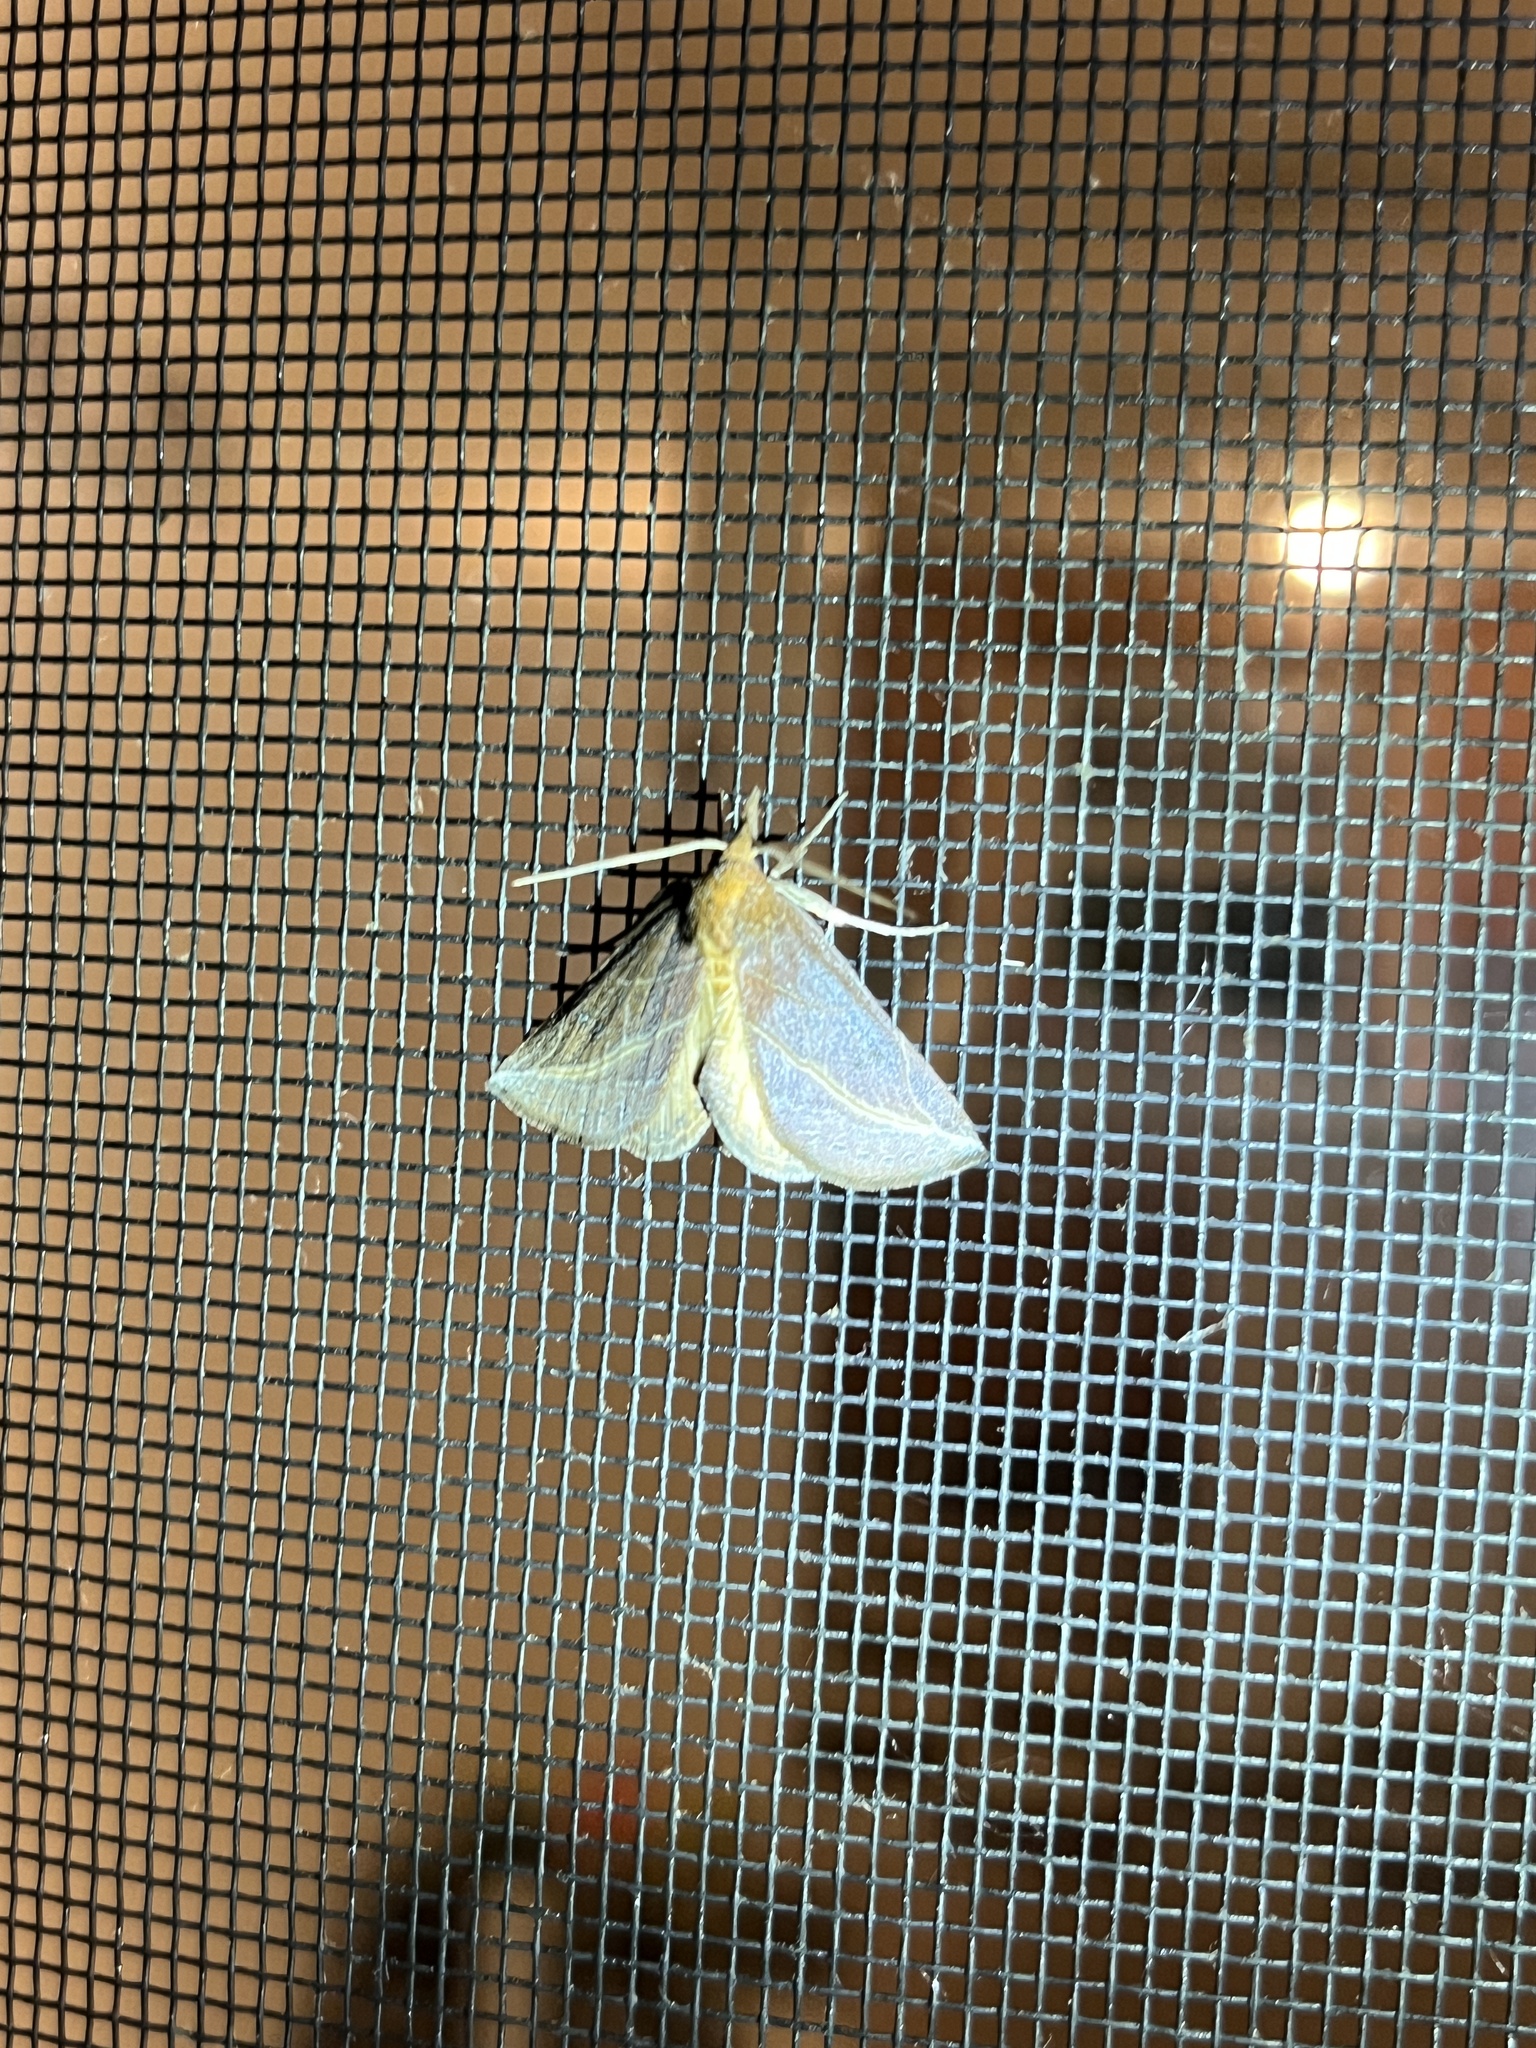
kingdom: Animalia
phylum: Arthropoda
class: Insecta
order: Lepidoptera
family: Erebidae
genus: Phyprosopus
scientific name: Phyprosopus callitrichoides
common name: Curved-lined owlet
